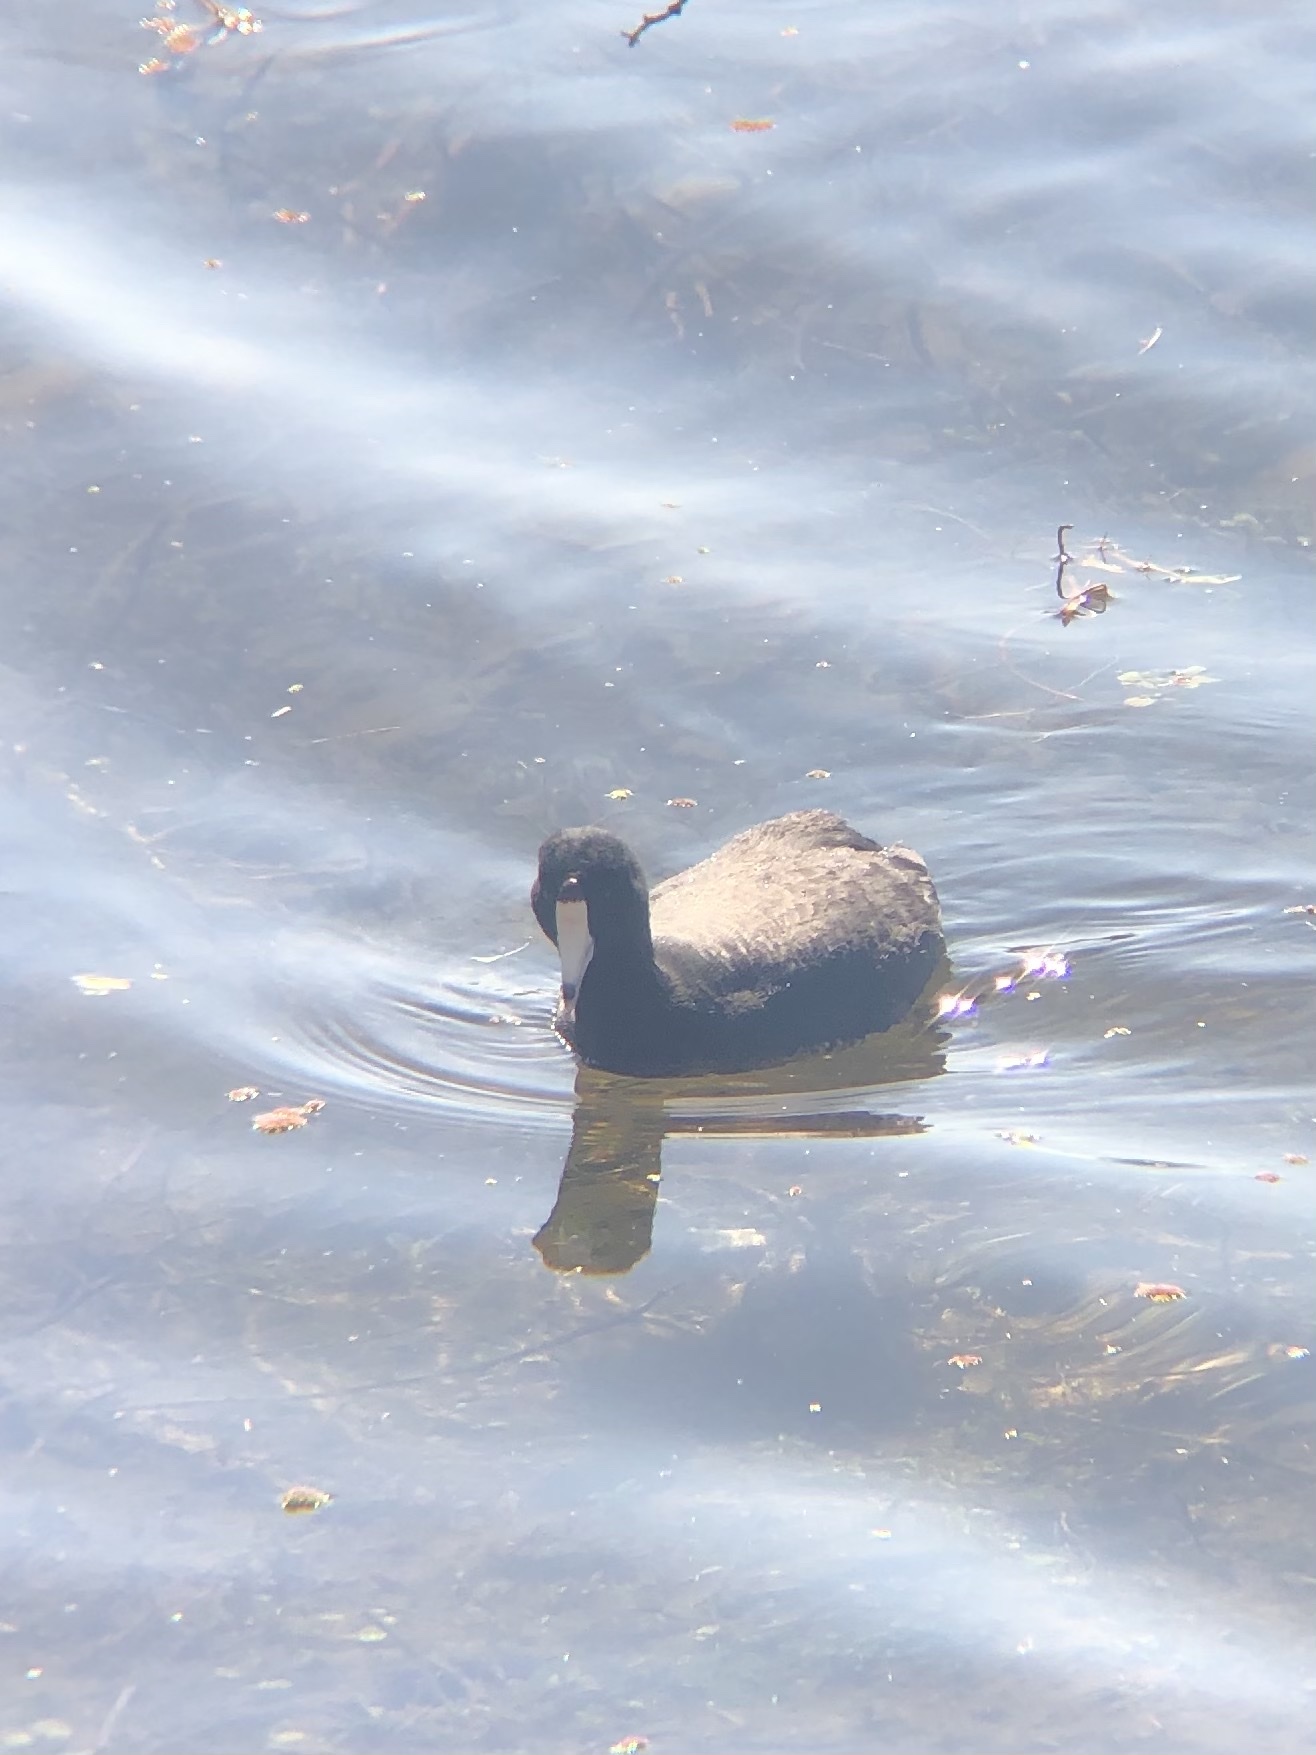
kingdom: Animalia
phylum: Chordata
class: Aves
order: Gruiformes
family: Rallidae
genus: Fulica
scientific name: Fulica americana
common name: American coot
